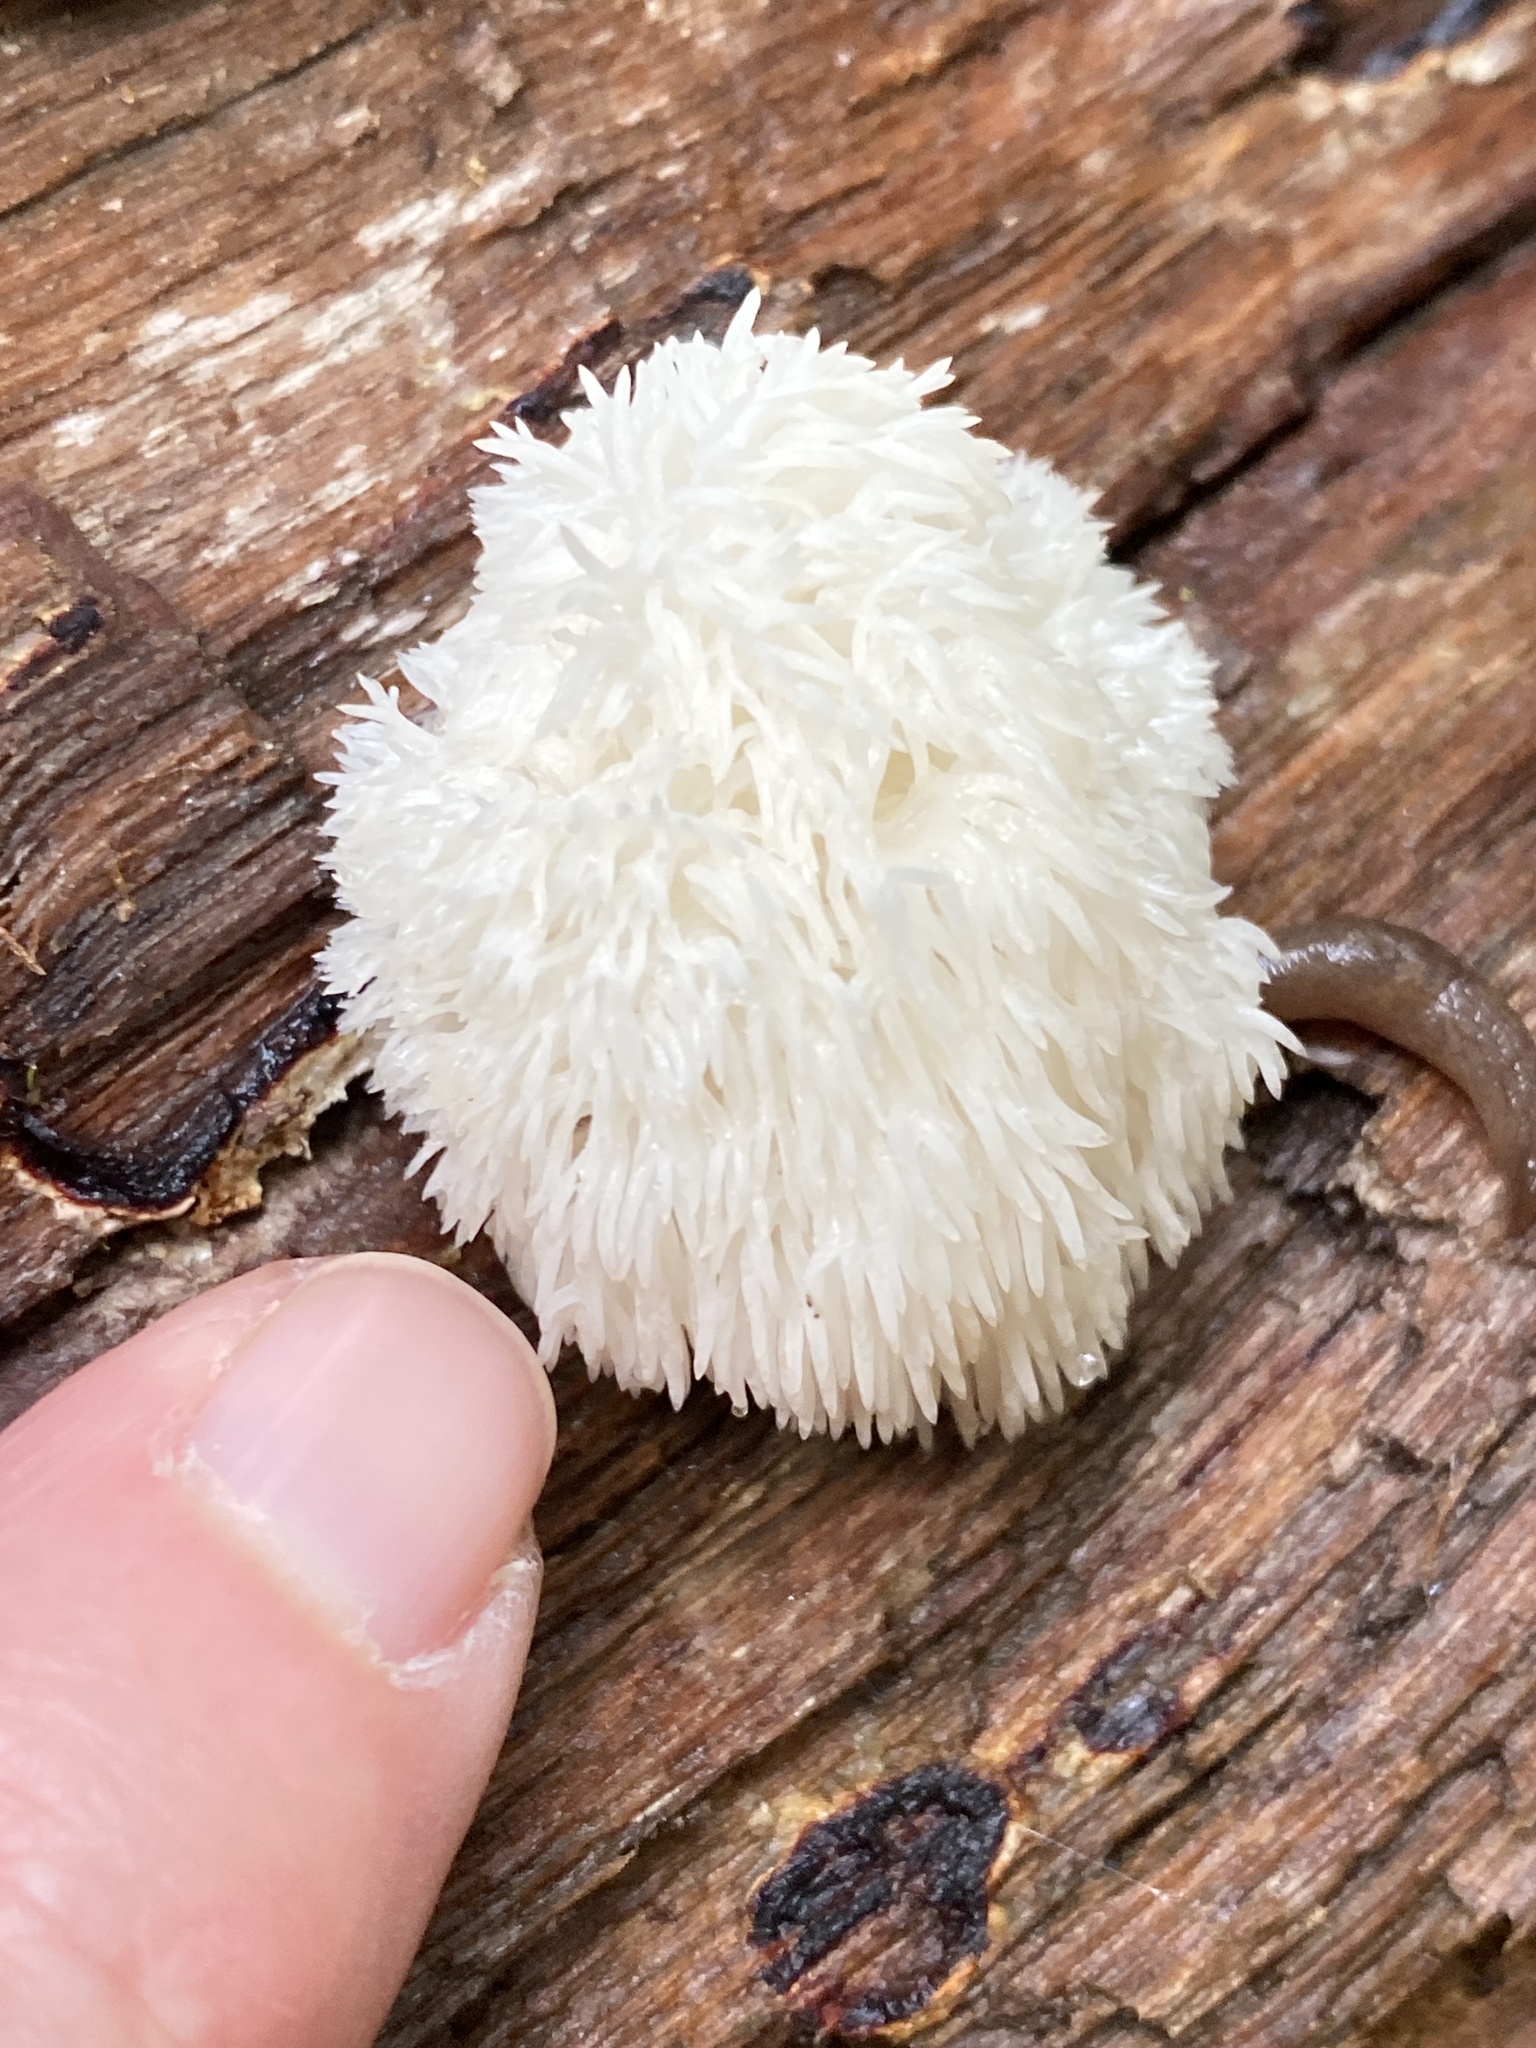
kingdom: Fungi
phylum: Basidiomycota
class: Agaricomycetes
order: Russulales
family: Hericiaceae
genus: Hericium
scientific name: Hericium erinaceus
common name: Bearded tooth
